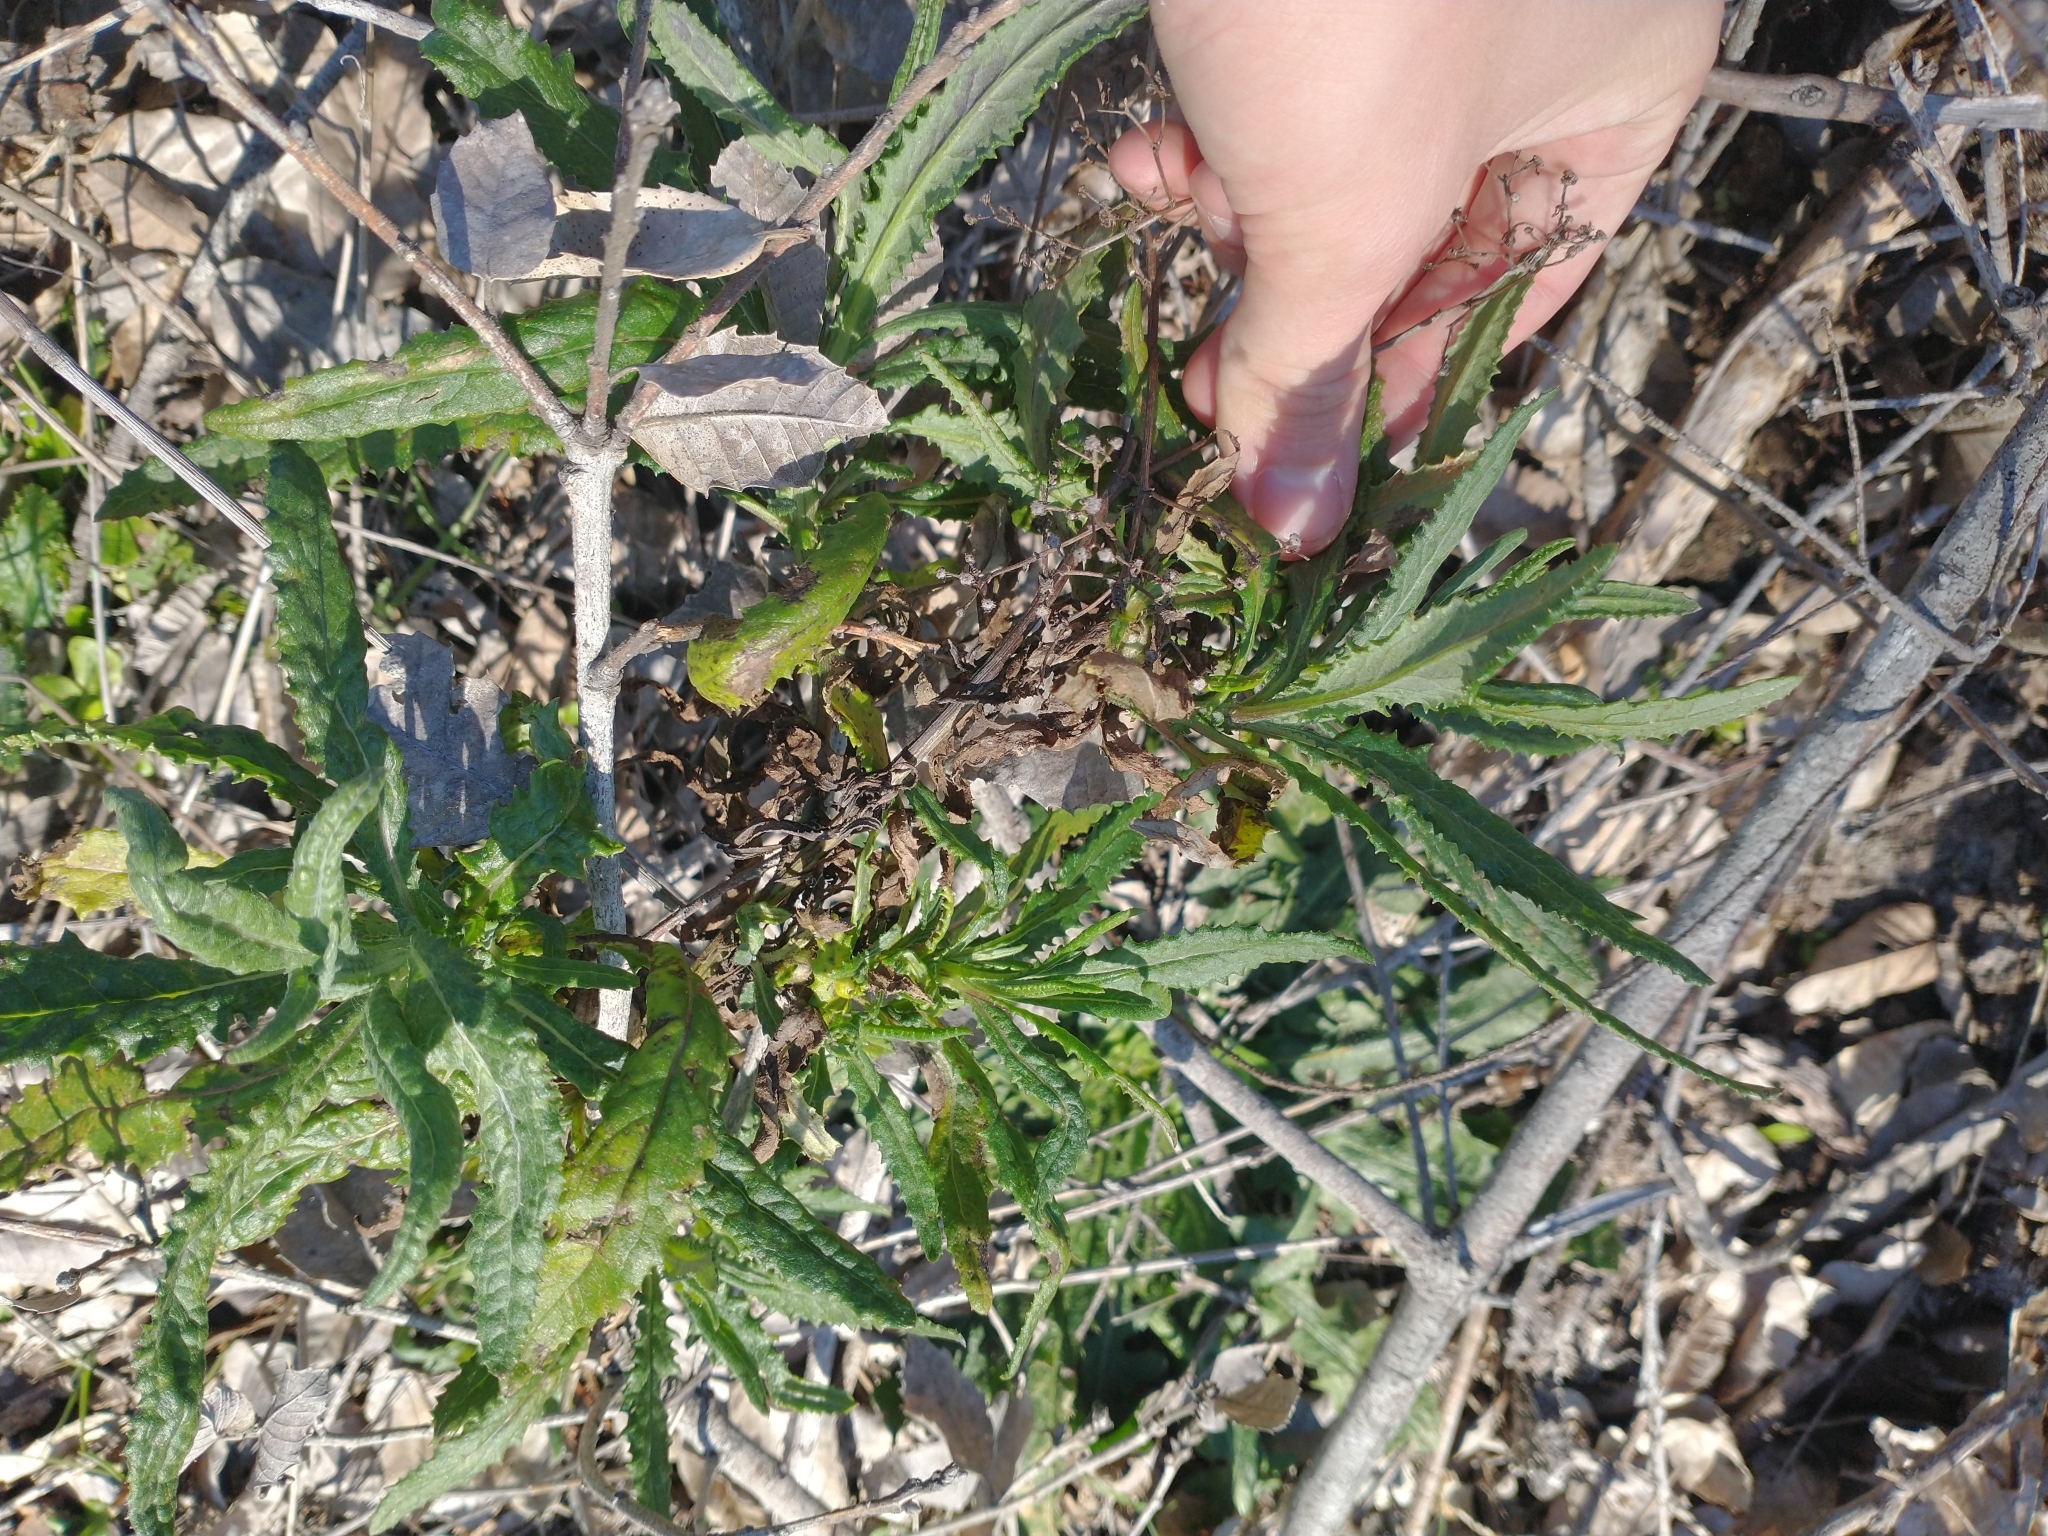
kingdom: Plantae
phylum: Tracheophyta
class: Magnoliopsida
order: Boraginales
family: Namaceae
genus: Eriodictyon
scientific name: Eriodictyon californicum
